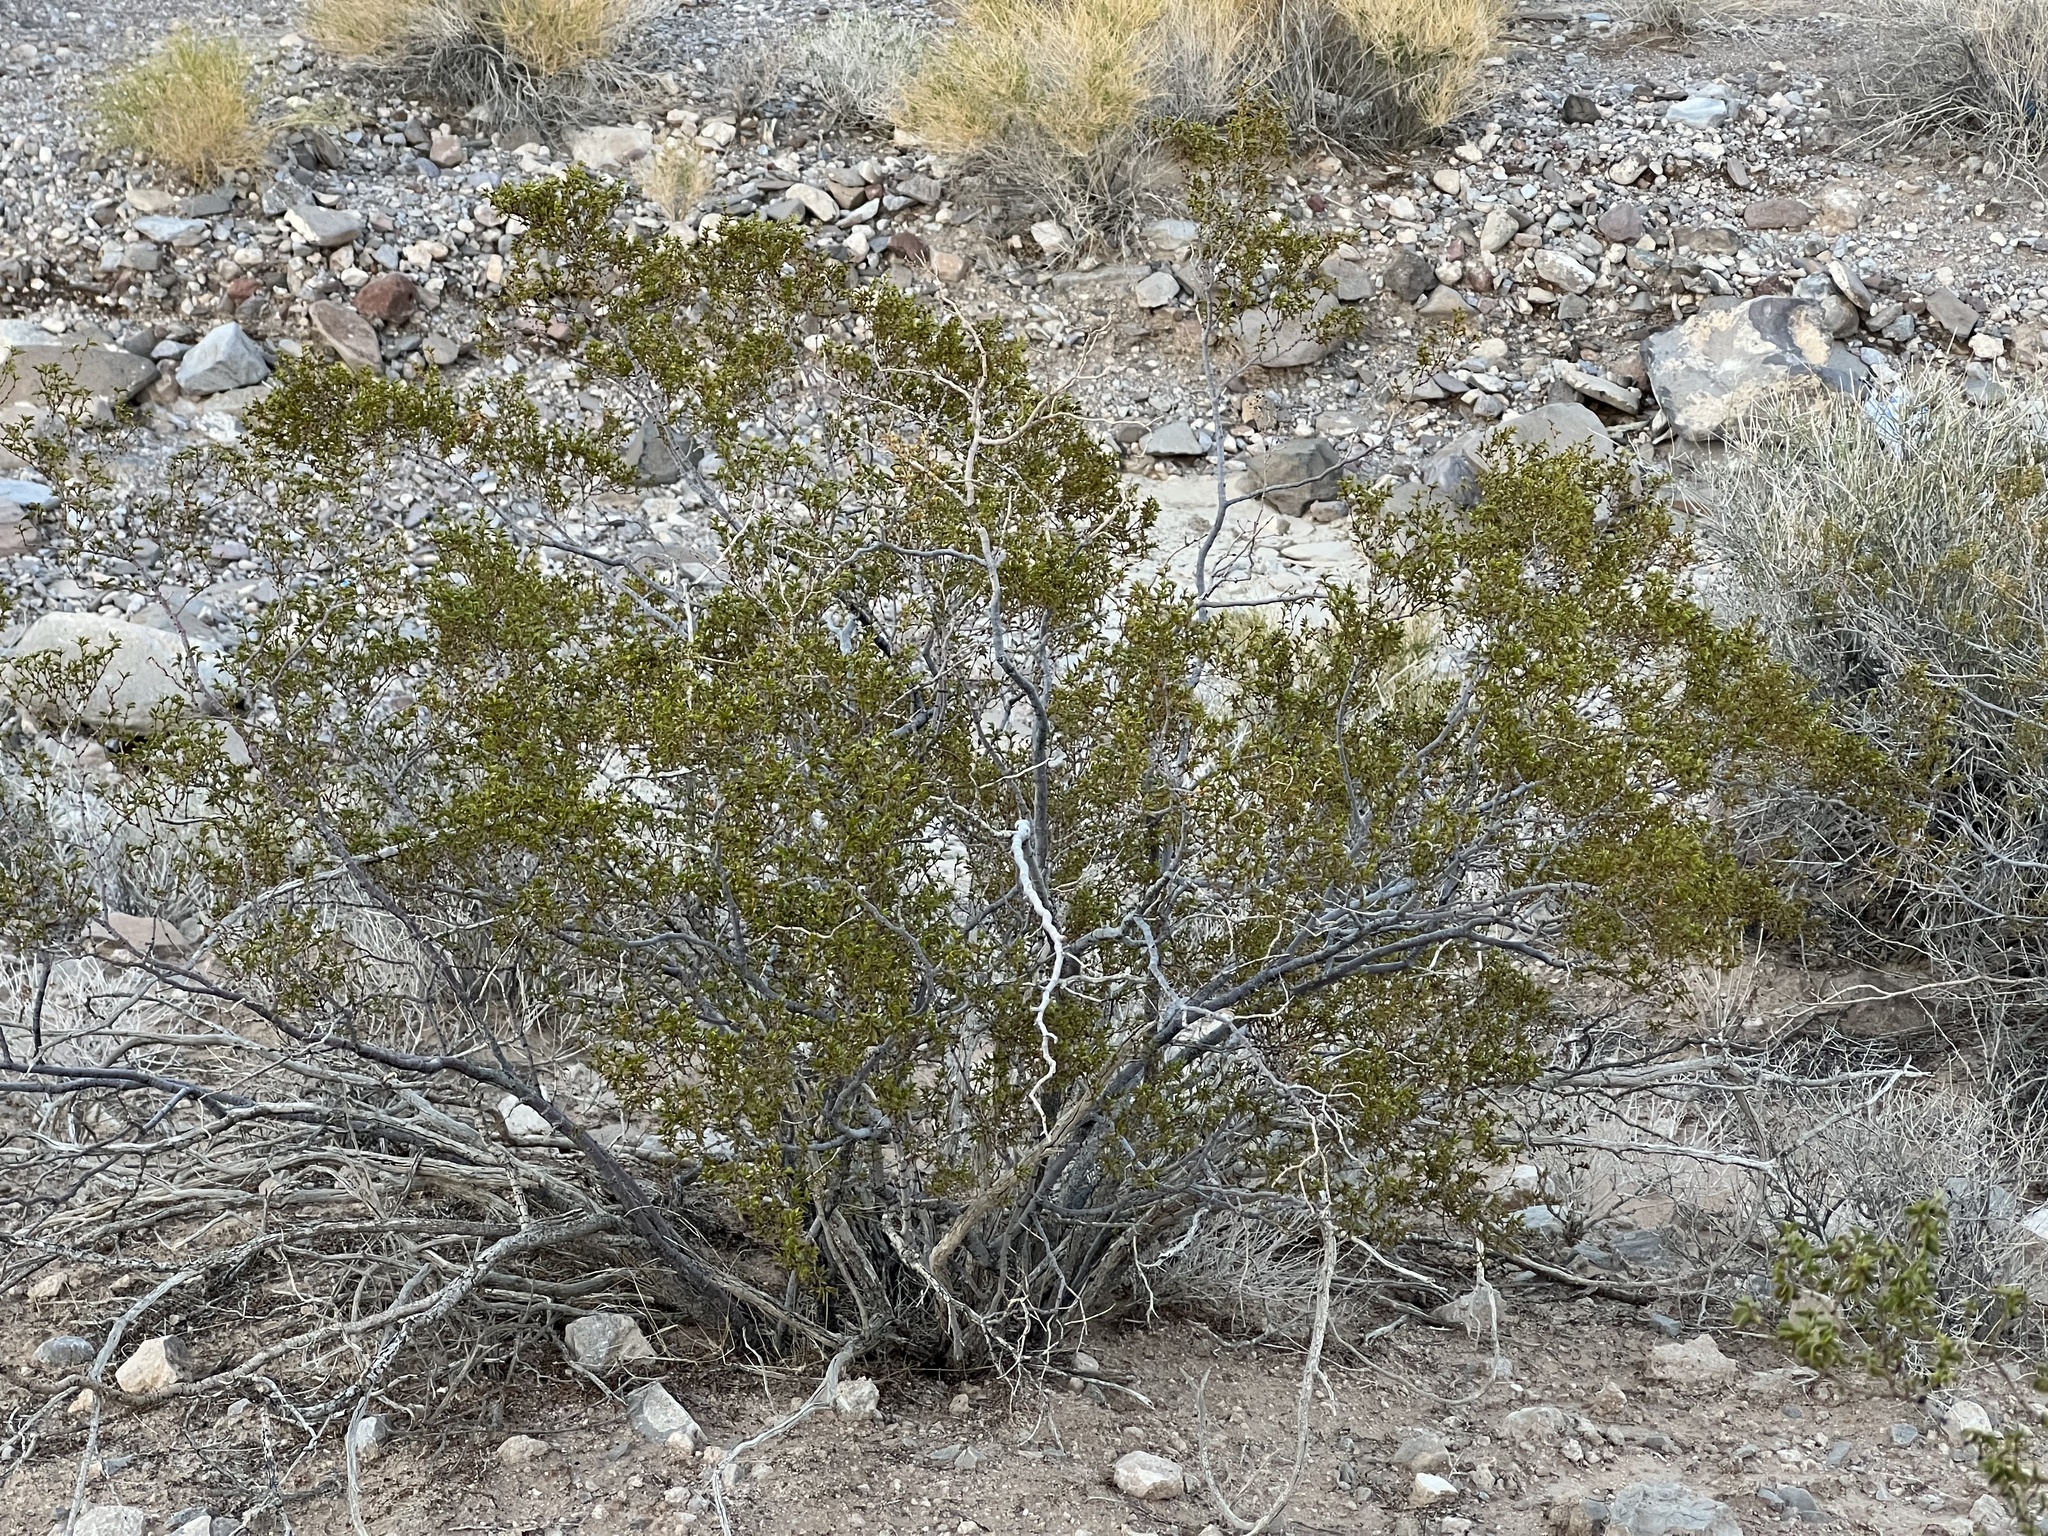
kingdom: Plantae
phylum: Tracheophyta
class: Magnoliopsida
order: Zygophyllales
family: Zygophyllaceae
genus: Larrea
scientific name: Larrea tridentata
